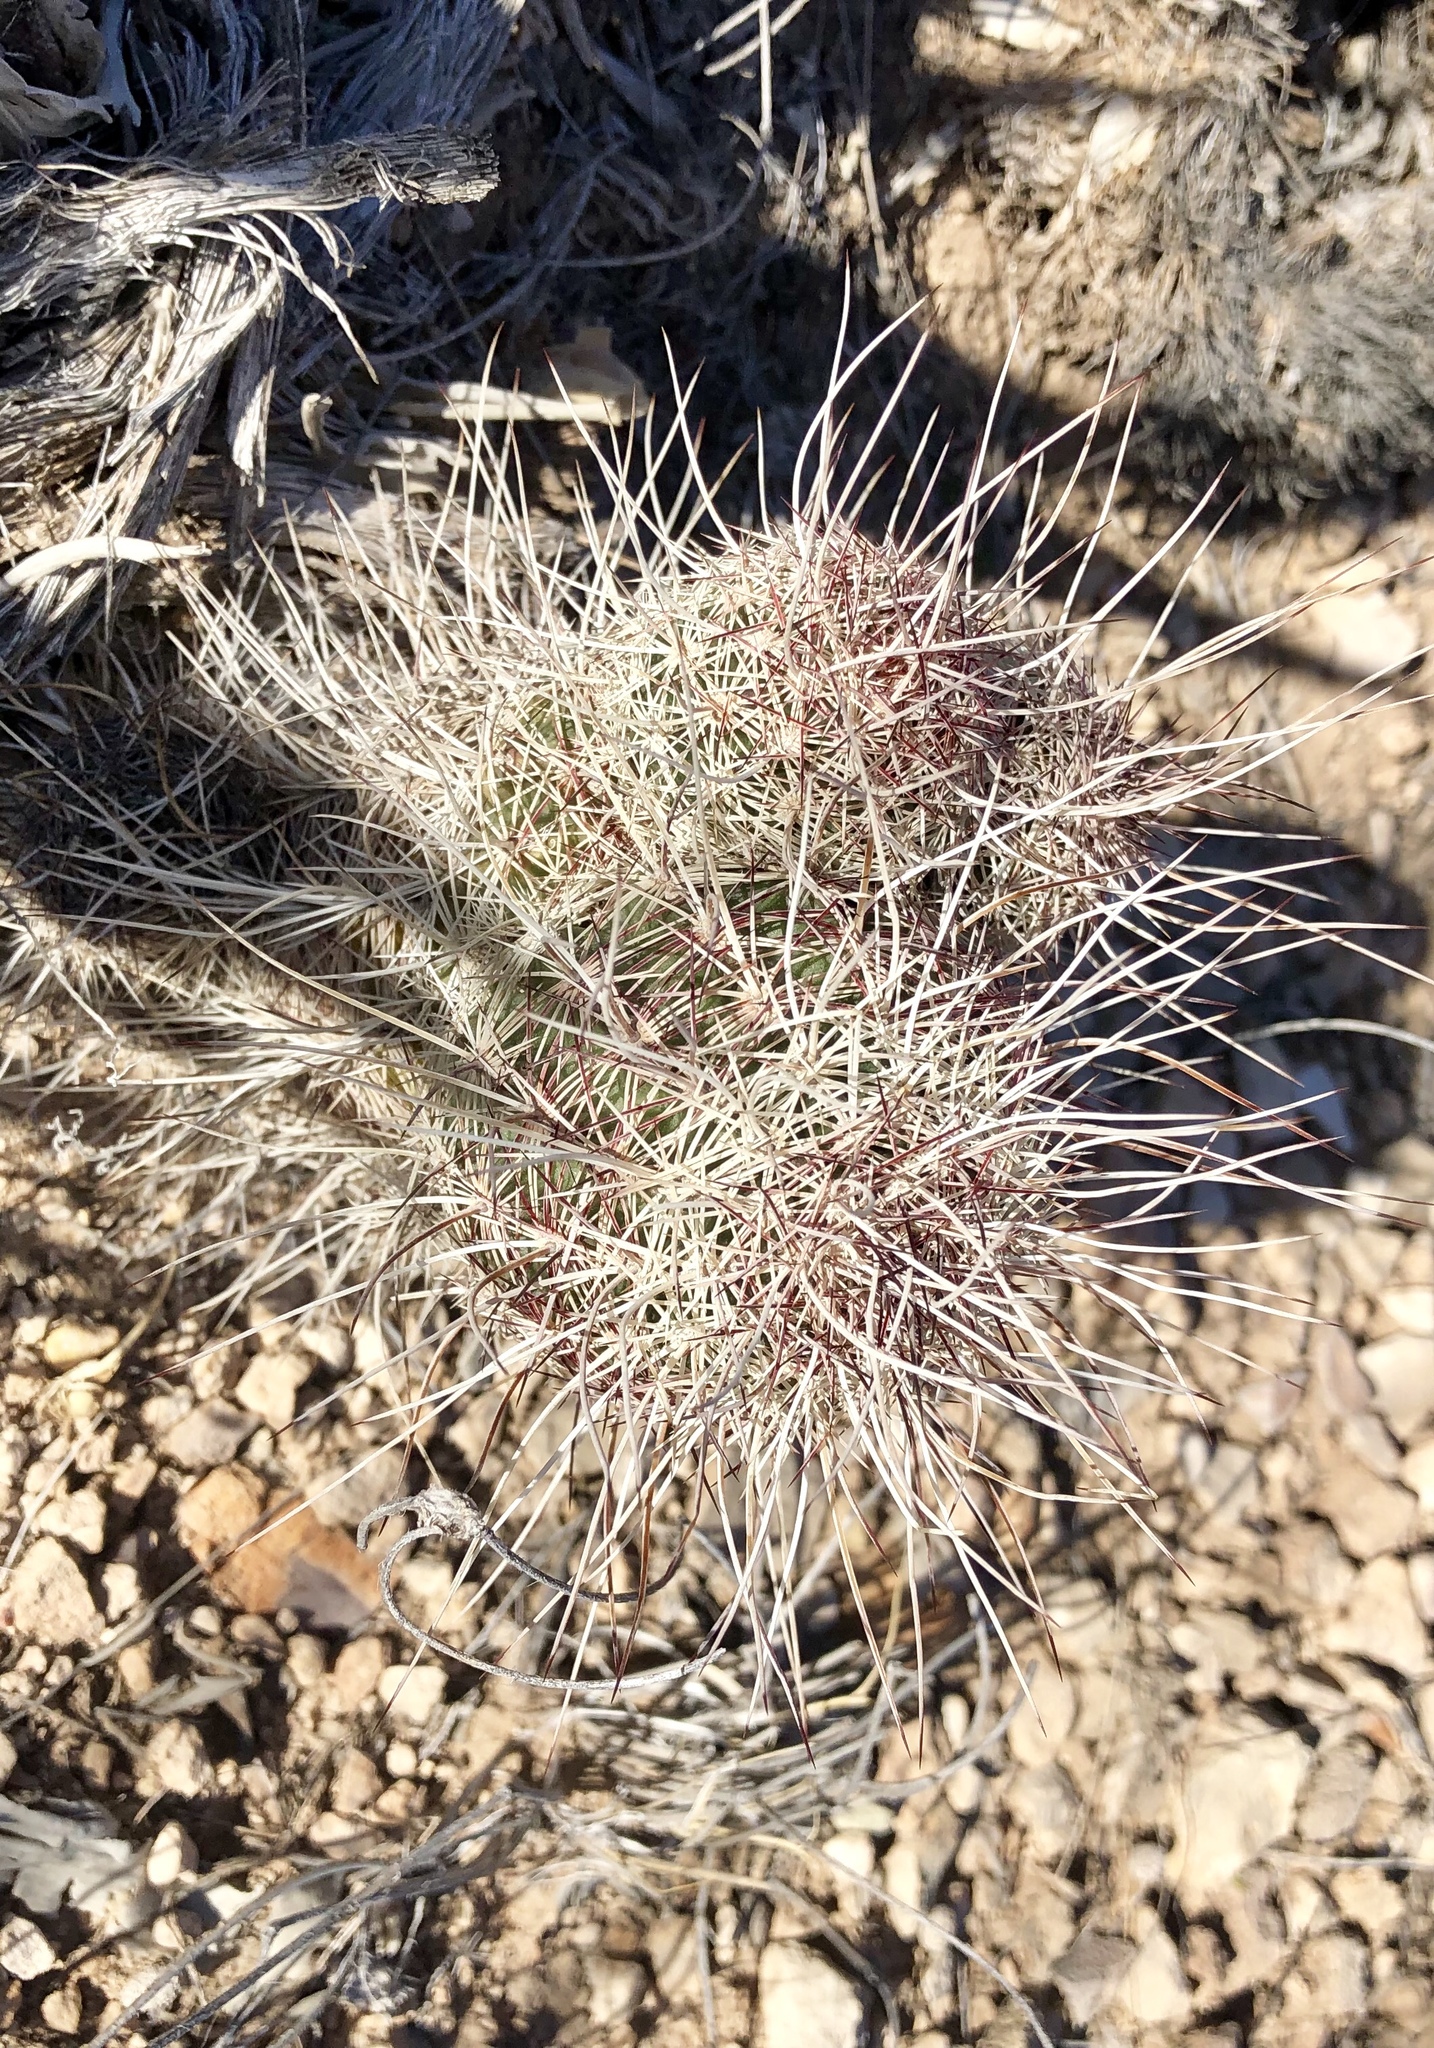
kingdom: Plantae
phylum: Tracheophyta
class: Magnoliopsida
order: Caryophyllales
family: Cactaceae
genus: Echinocereus
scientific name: Echinocereus viridiflorus
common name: Nylon hedgehog cactus
